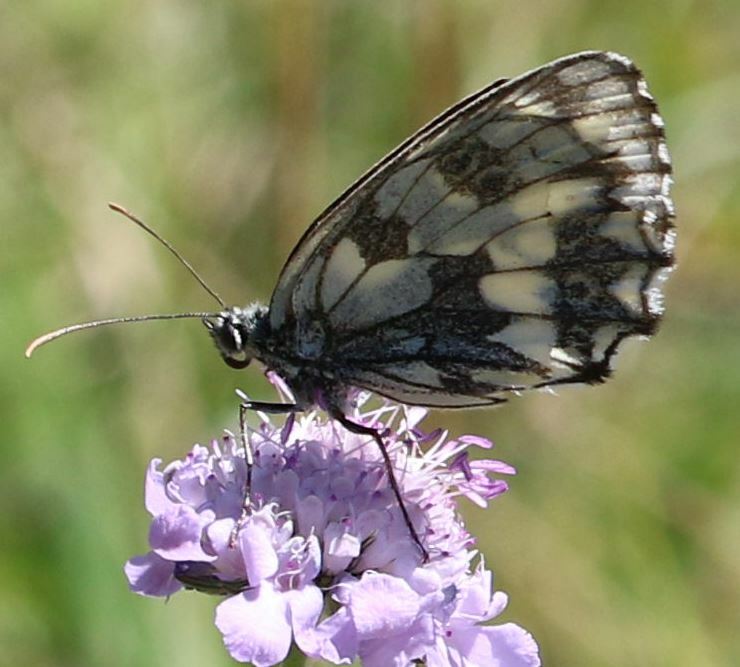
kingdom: Animalia
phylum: Arthropoda
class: Insecta
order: Lepidoptera
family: Nymphalidae
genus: Melanargia
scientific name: Melanargia galathea
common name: Marbled white
